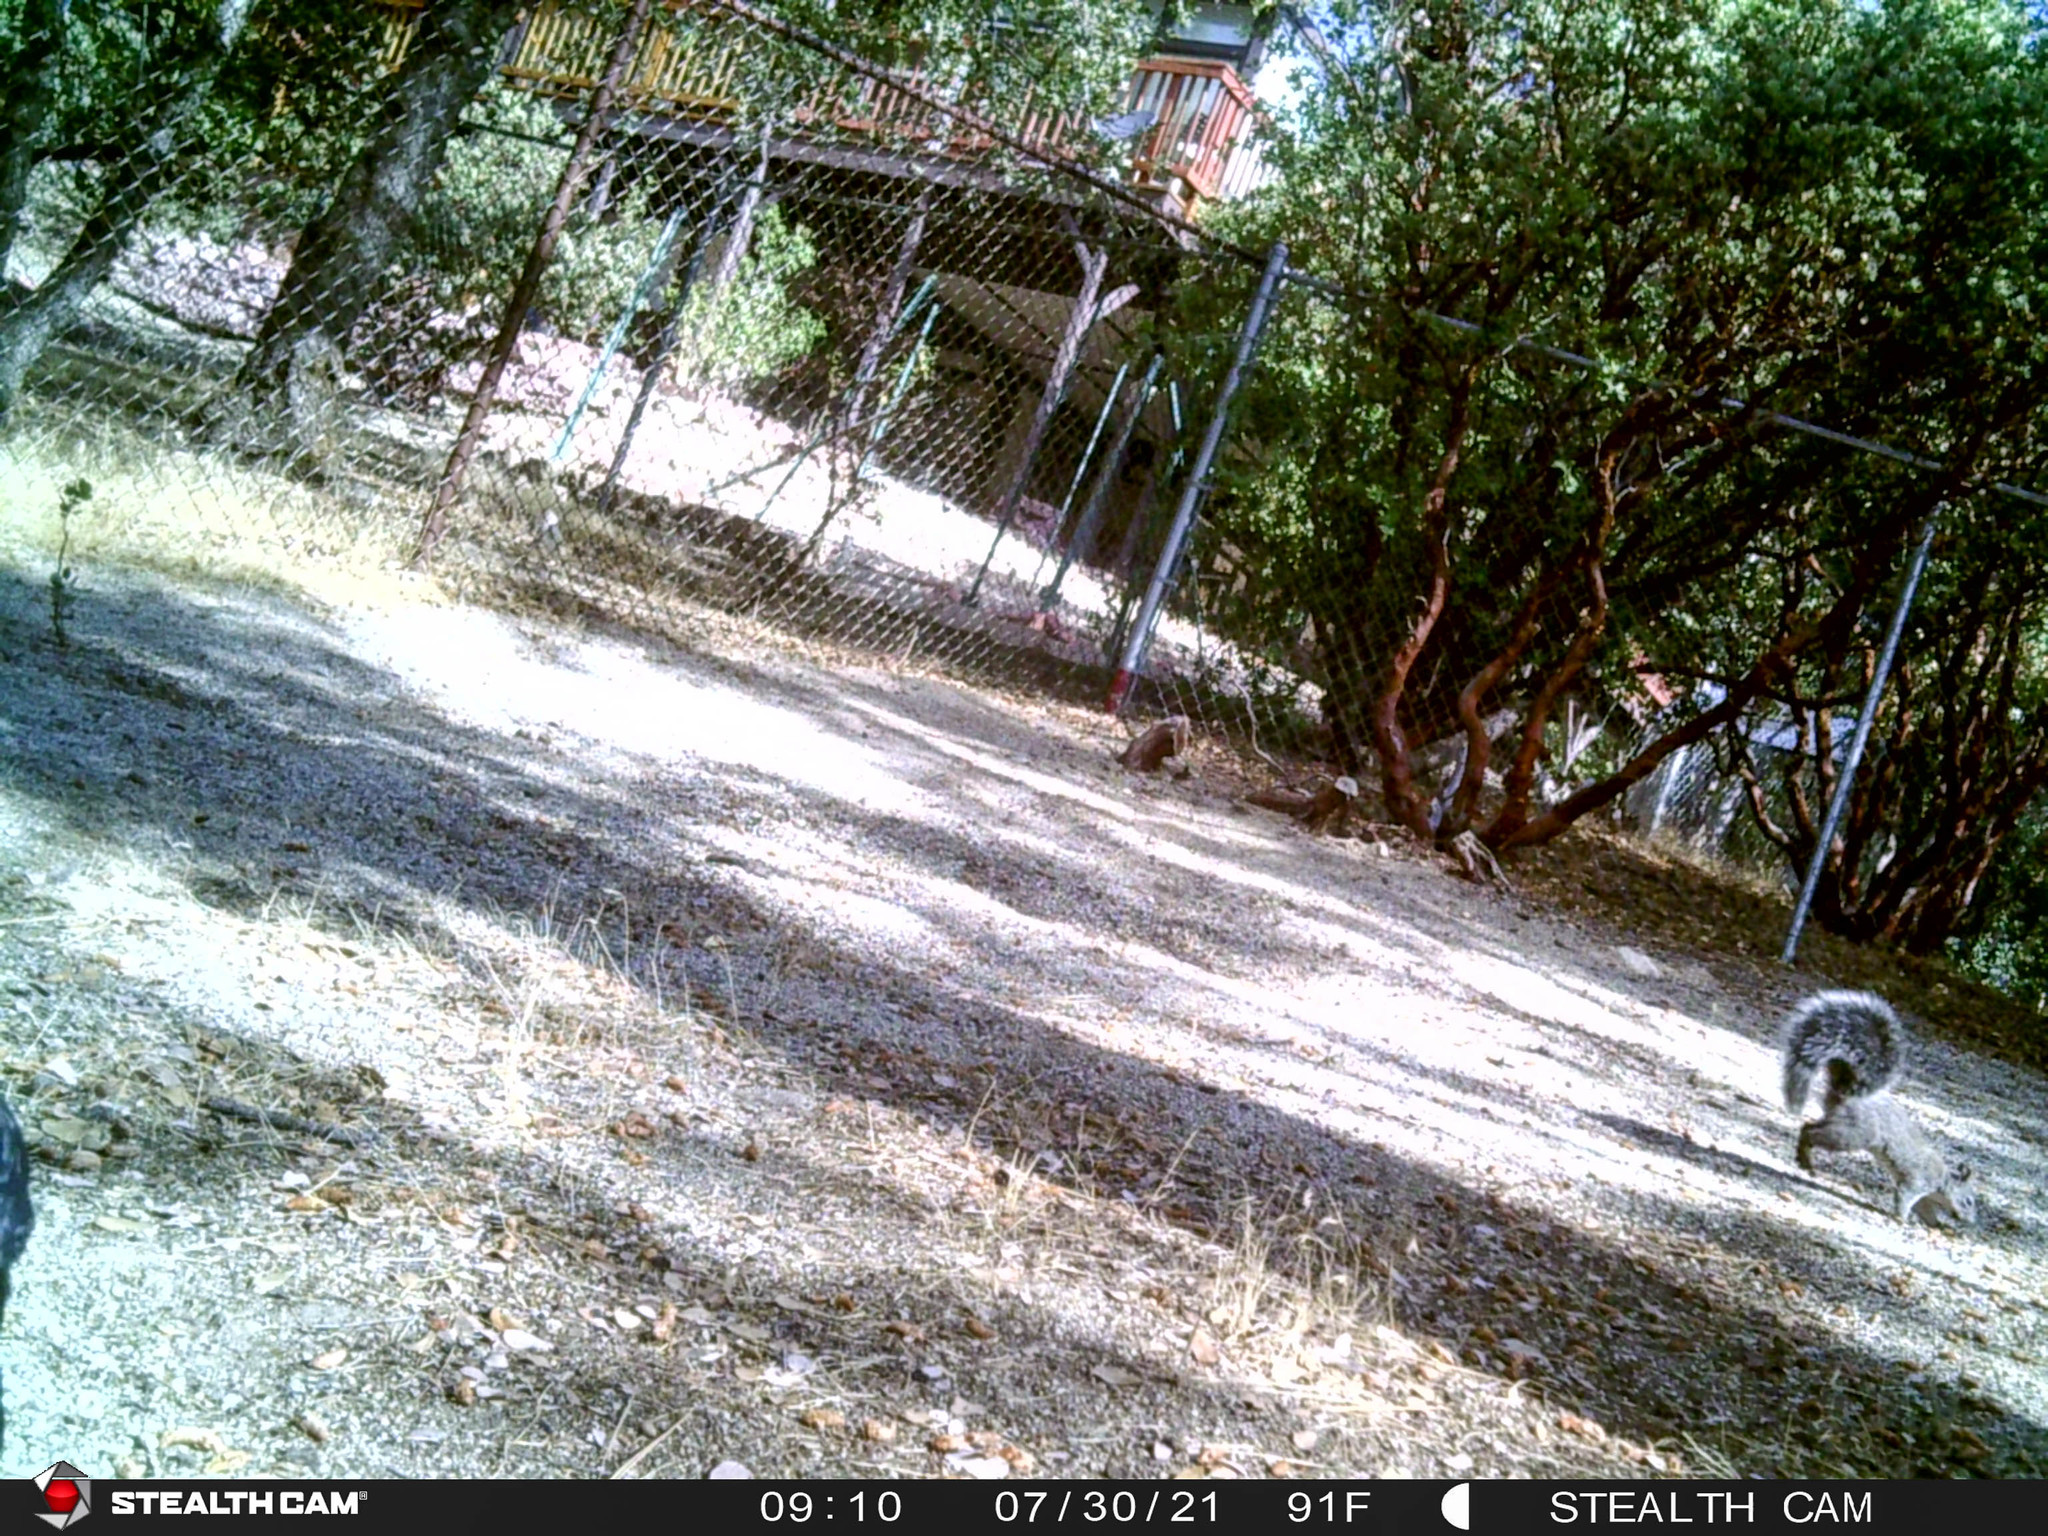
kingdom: Animalia
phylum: Chordata
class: Mammalia
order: Rodentia
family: Sciuridae
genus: Sciurus
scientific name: Sciurus griseus
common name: Western gray squirrel
